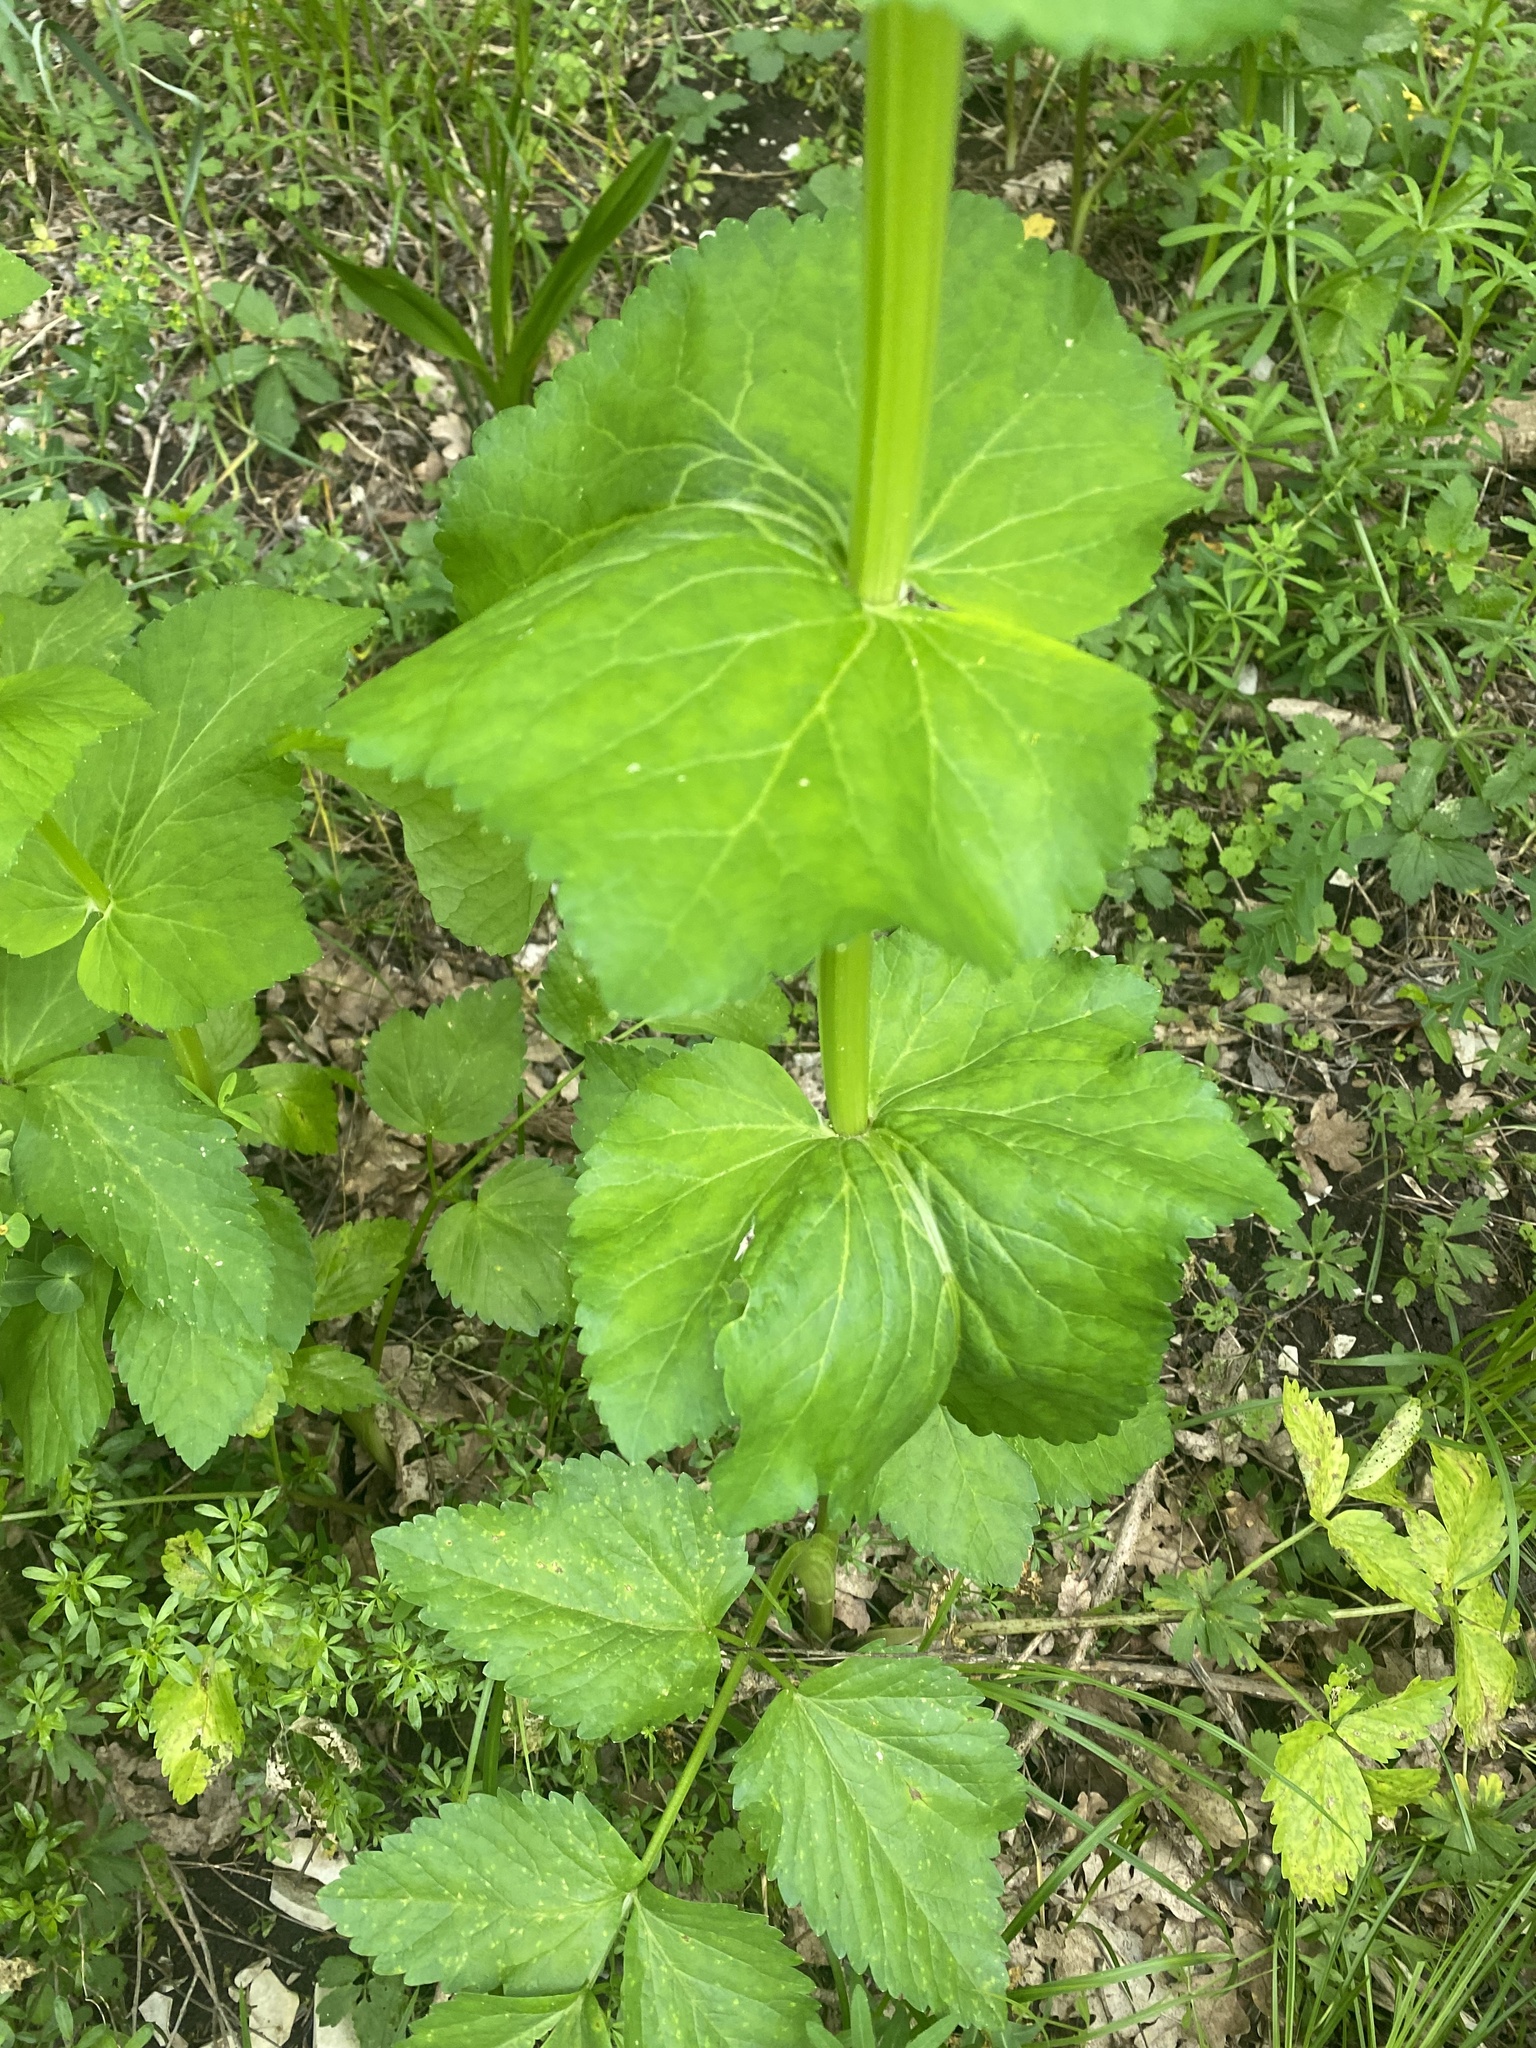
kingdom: Plantae
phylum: Tracheophyta
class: Magnoliopsida
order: Apiales
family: Apiaceae
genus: Smyrnium
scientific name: Smyrnium perfoliatum
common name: Perfoliate alexanders
